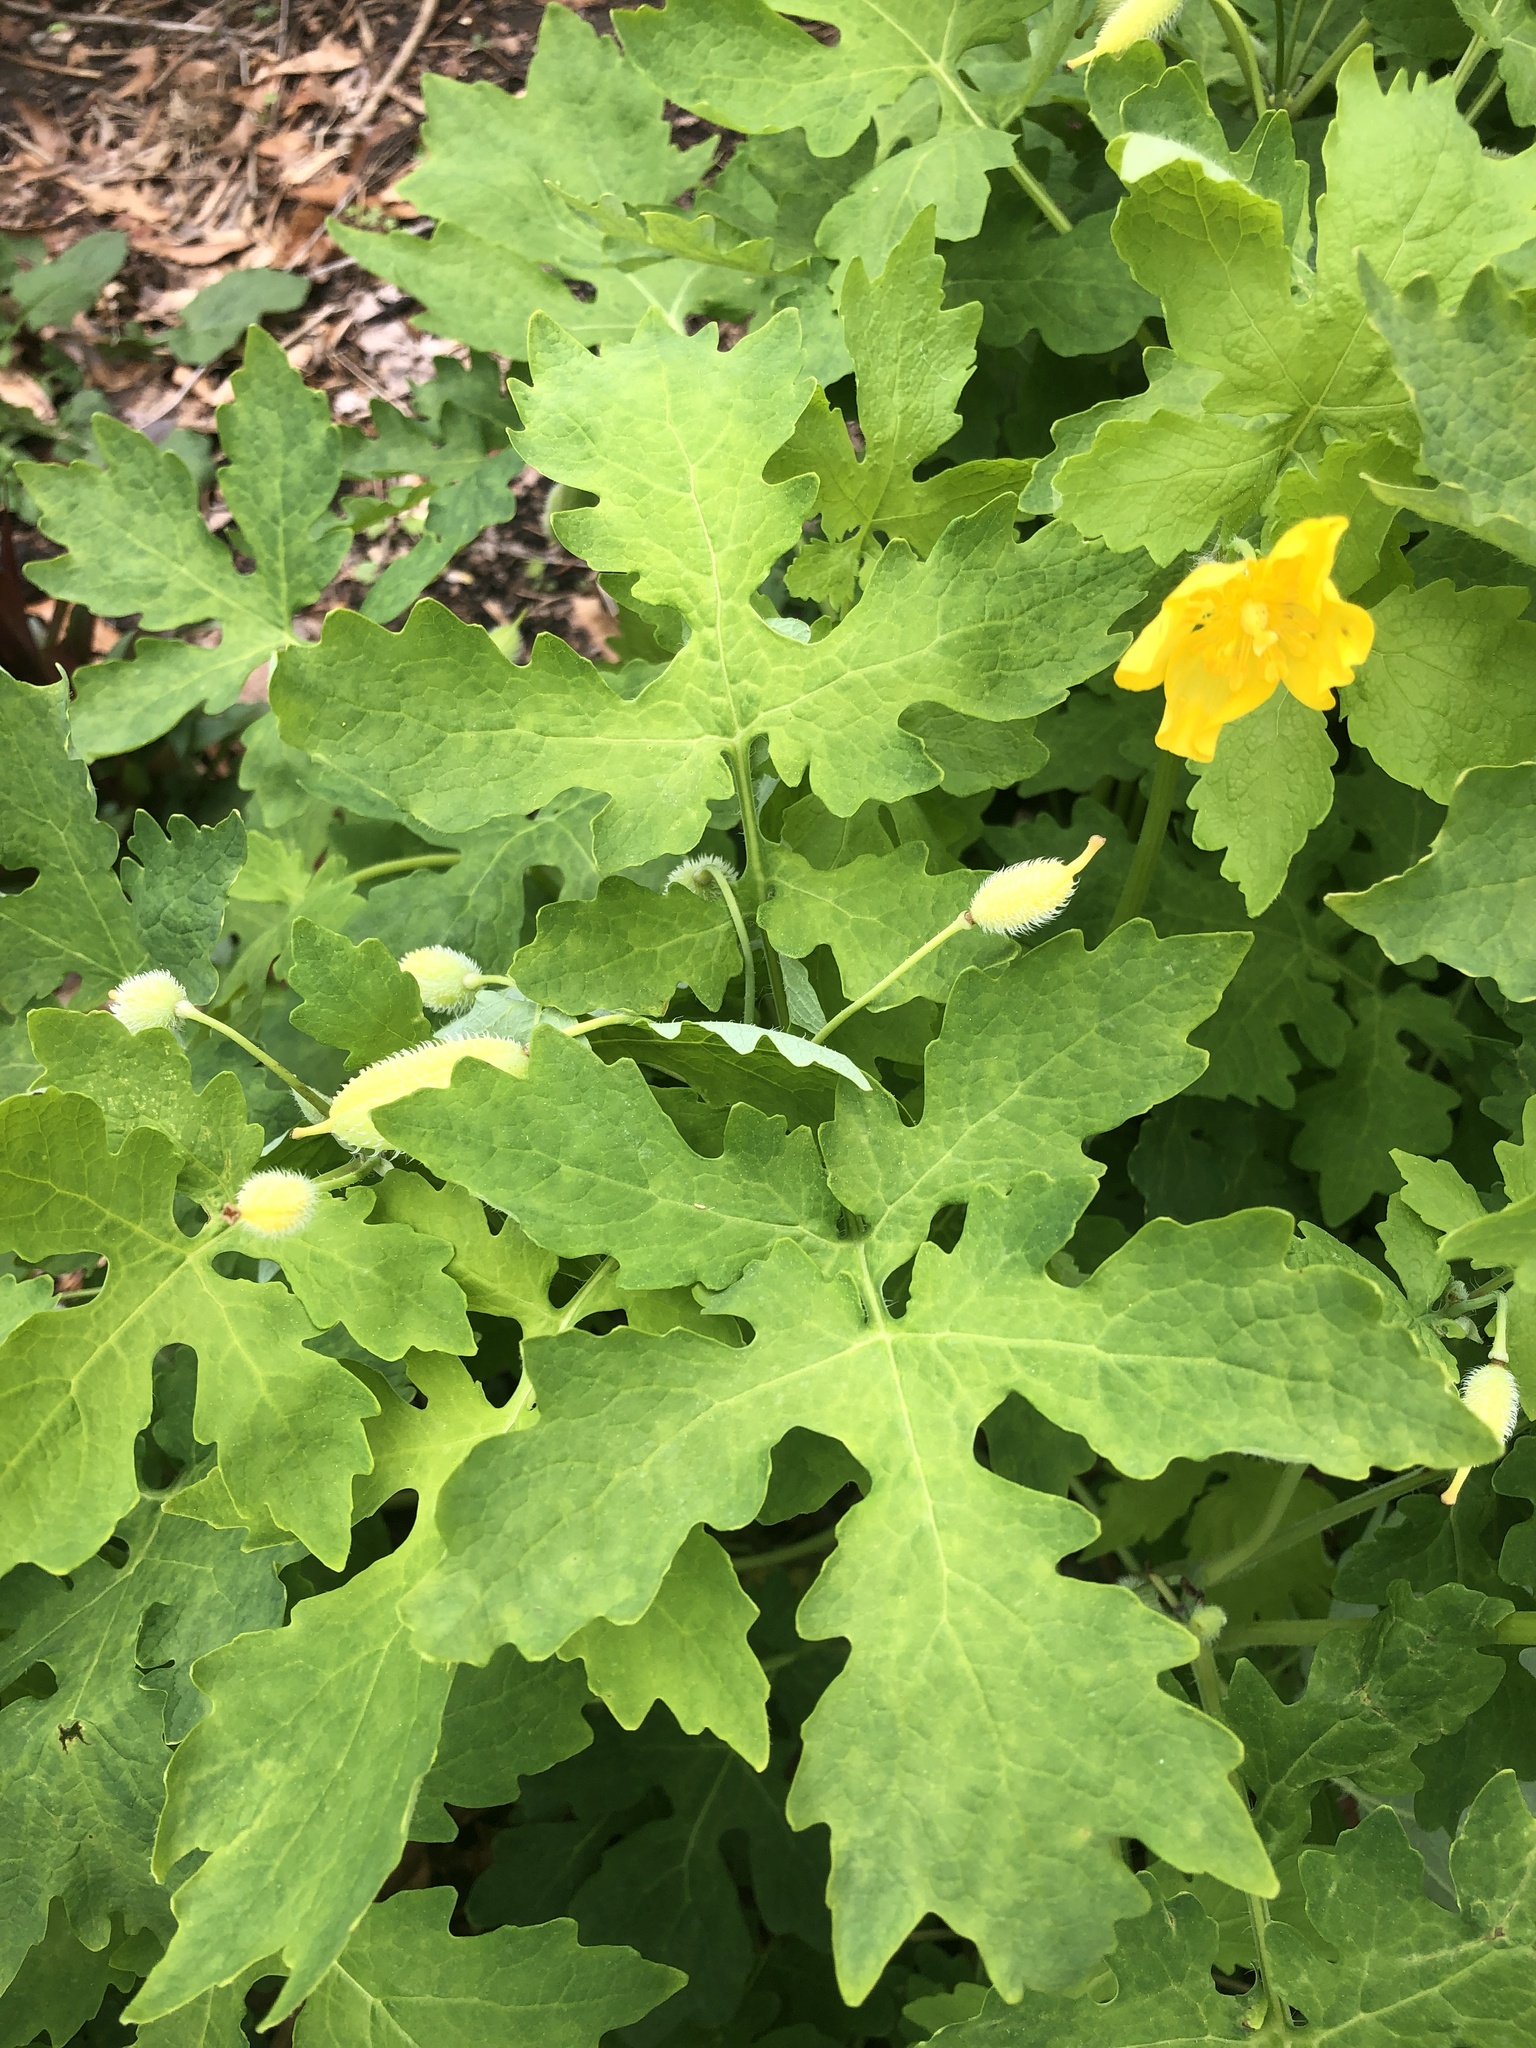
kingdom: Plantae
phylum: Tracheophyta
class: Magnoliopsida
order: Ranunculales
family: Papaveraceae
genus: Stylophorum
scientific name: Stylophorum diphyllum
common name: Celandine poppy
